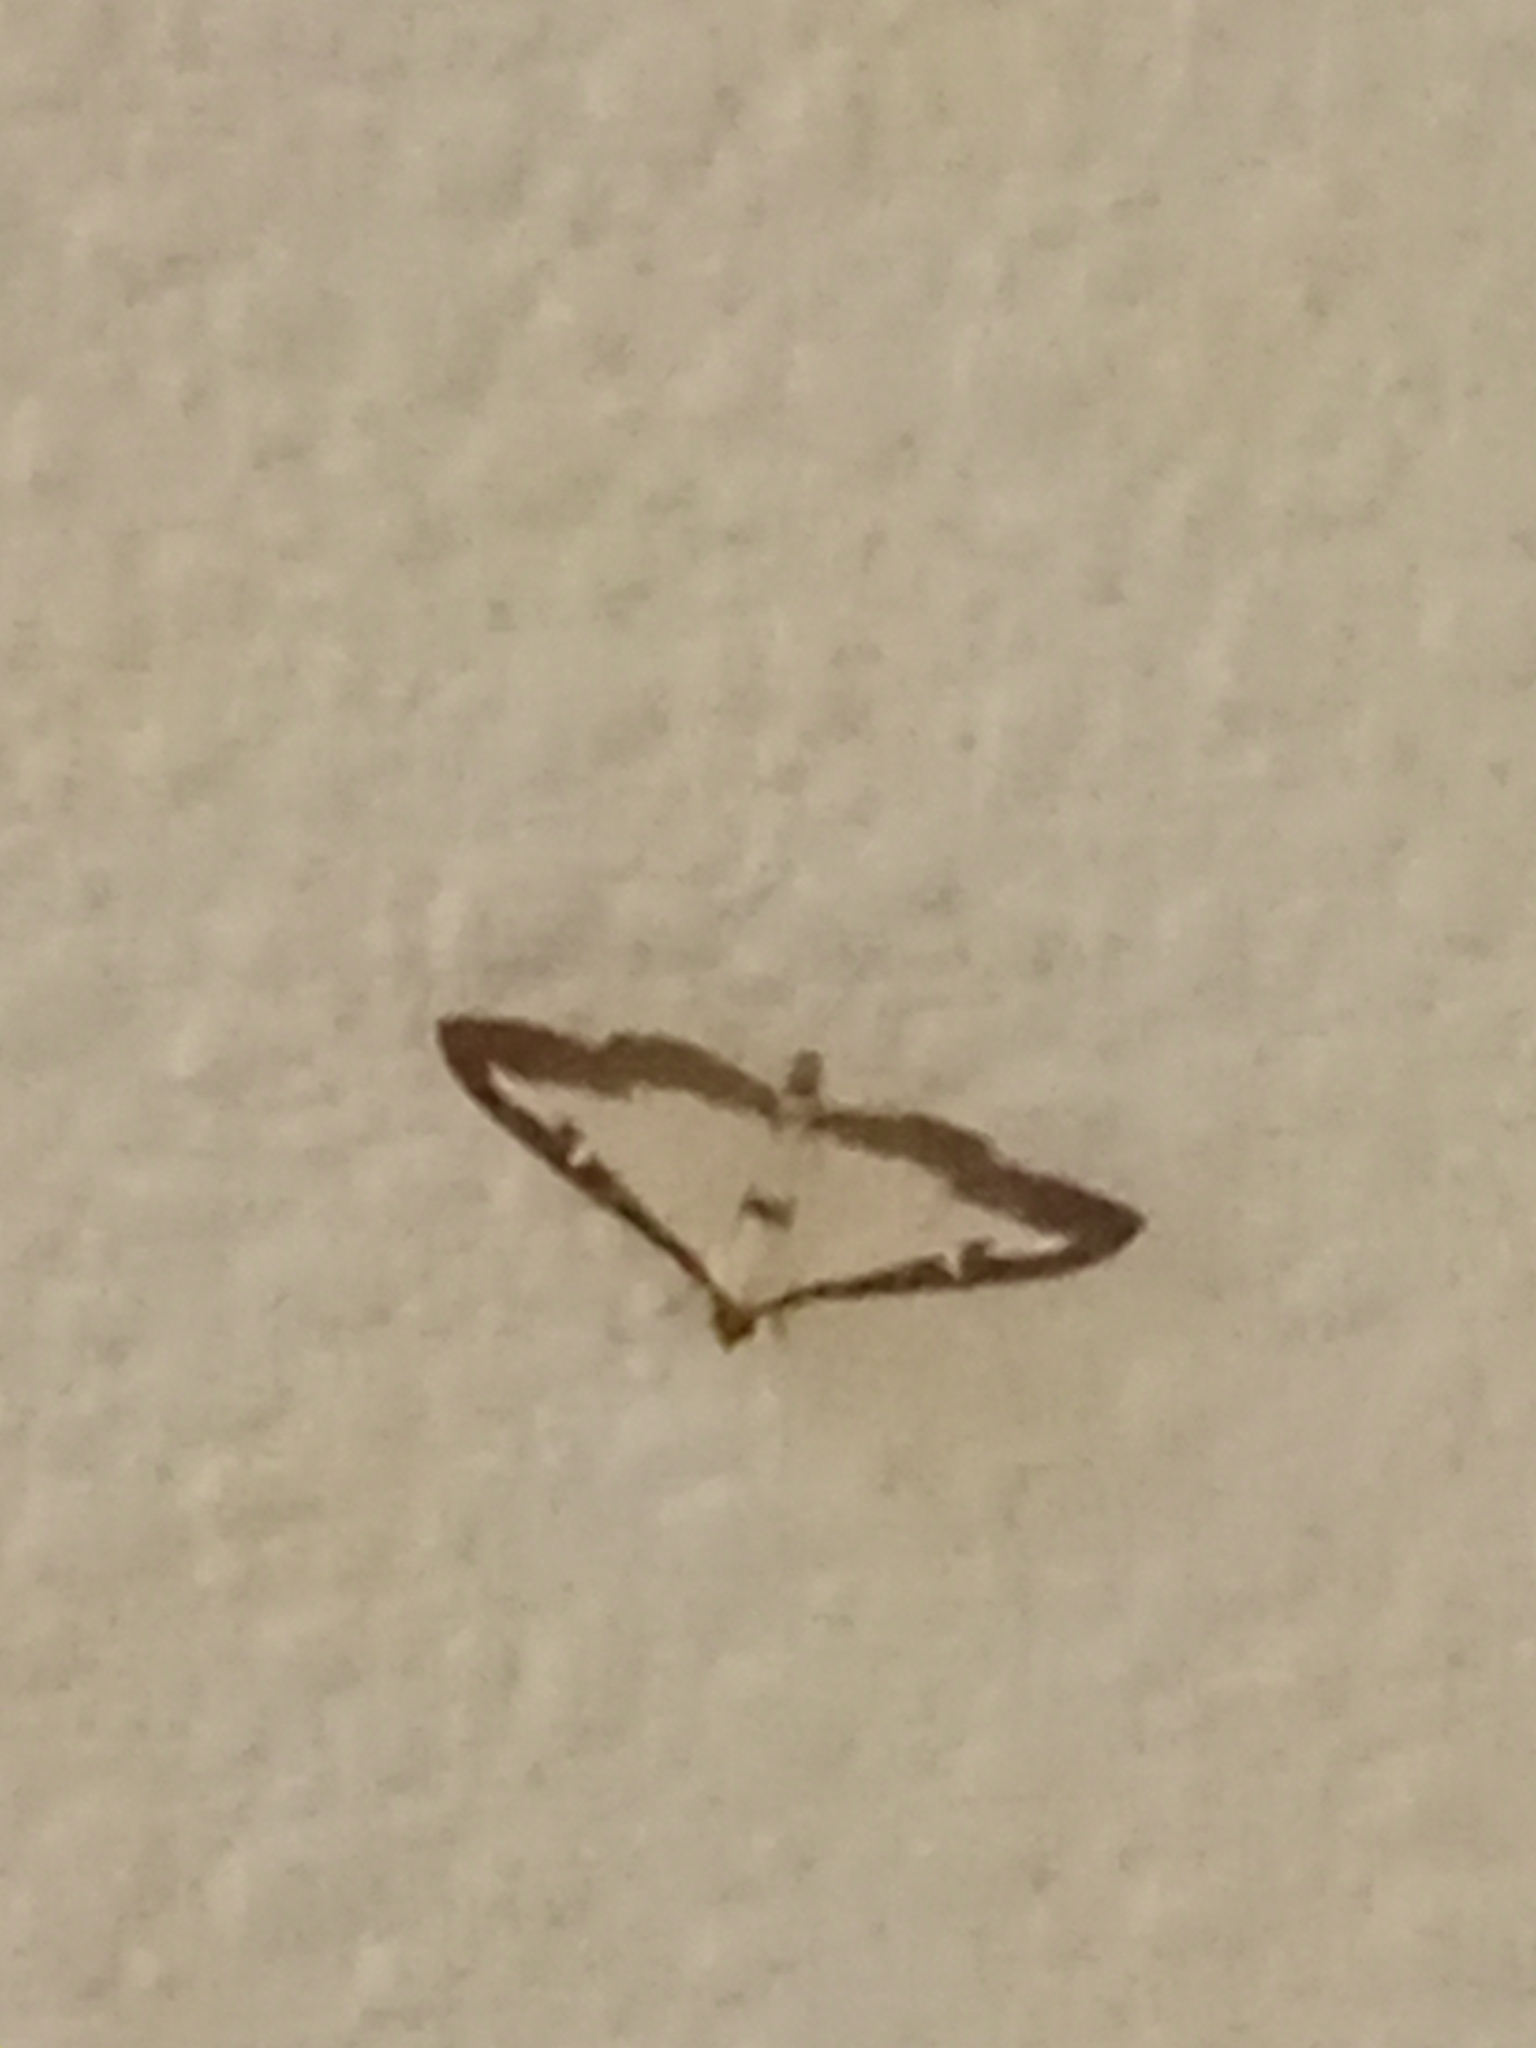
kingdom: Animalia
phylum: Arthropoda
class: Insecta
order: Lepidoptera
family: Crambidae
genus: Cydalima
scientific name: Cydalima perspectalis
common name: Box tree moth
